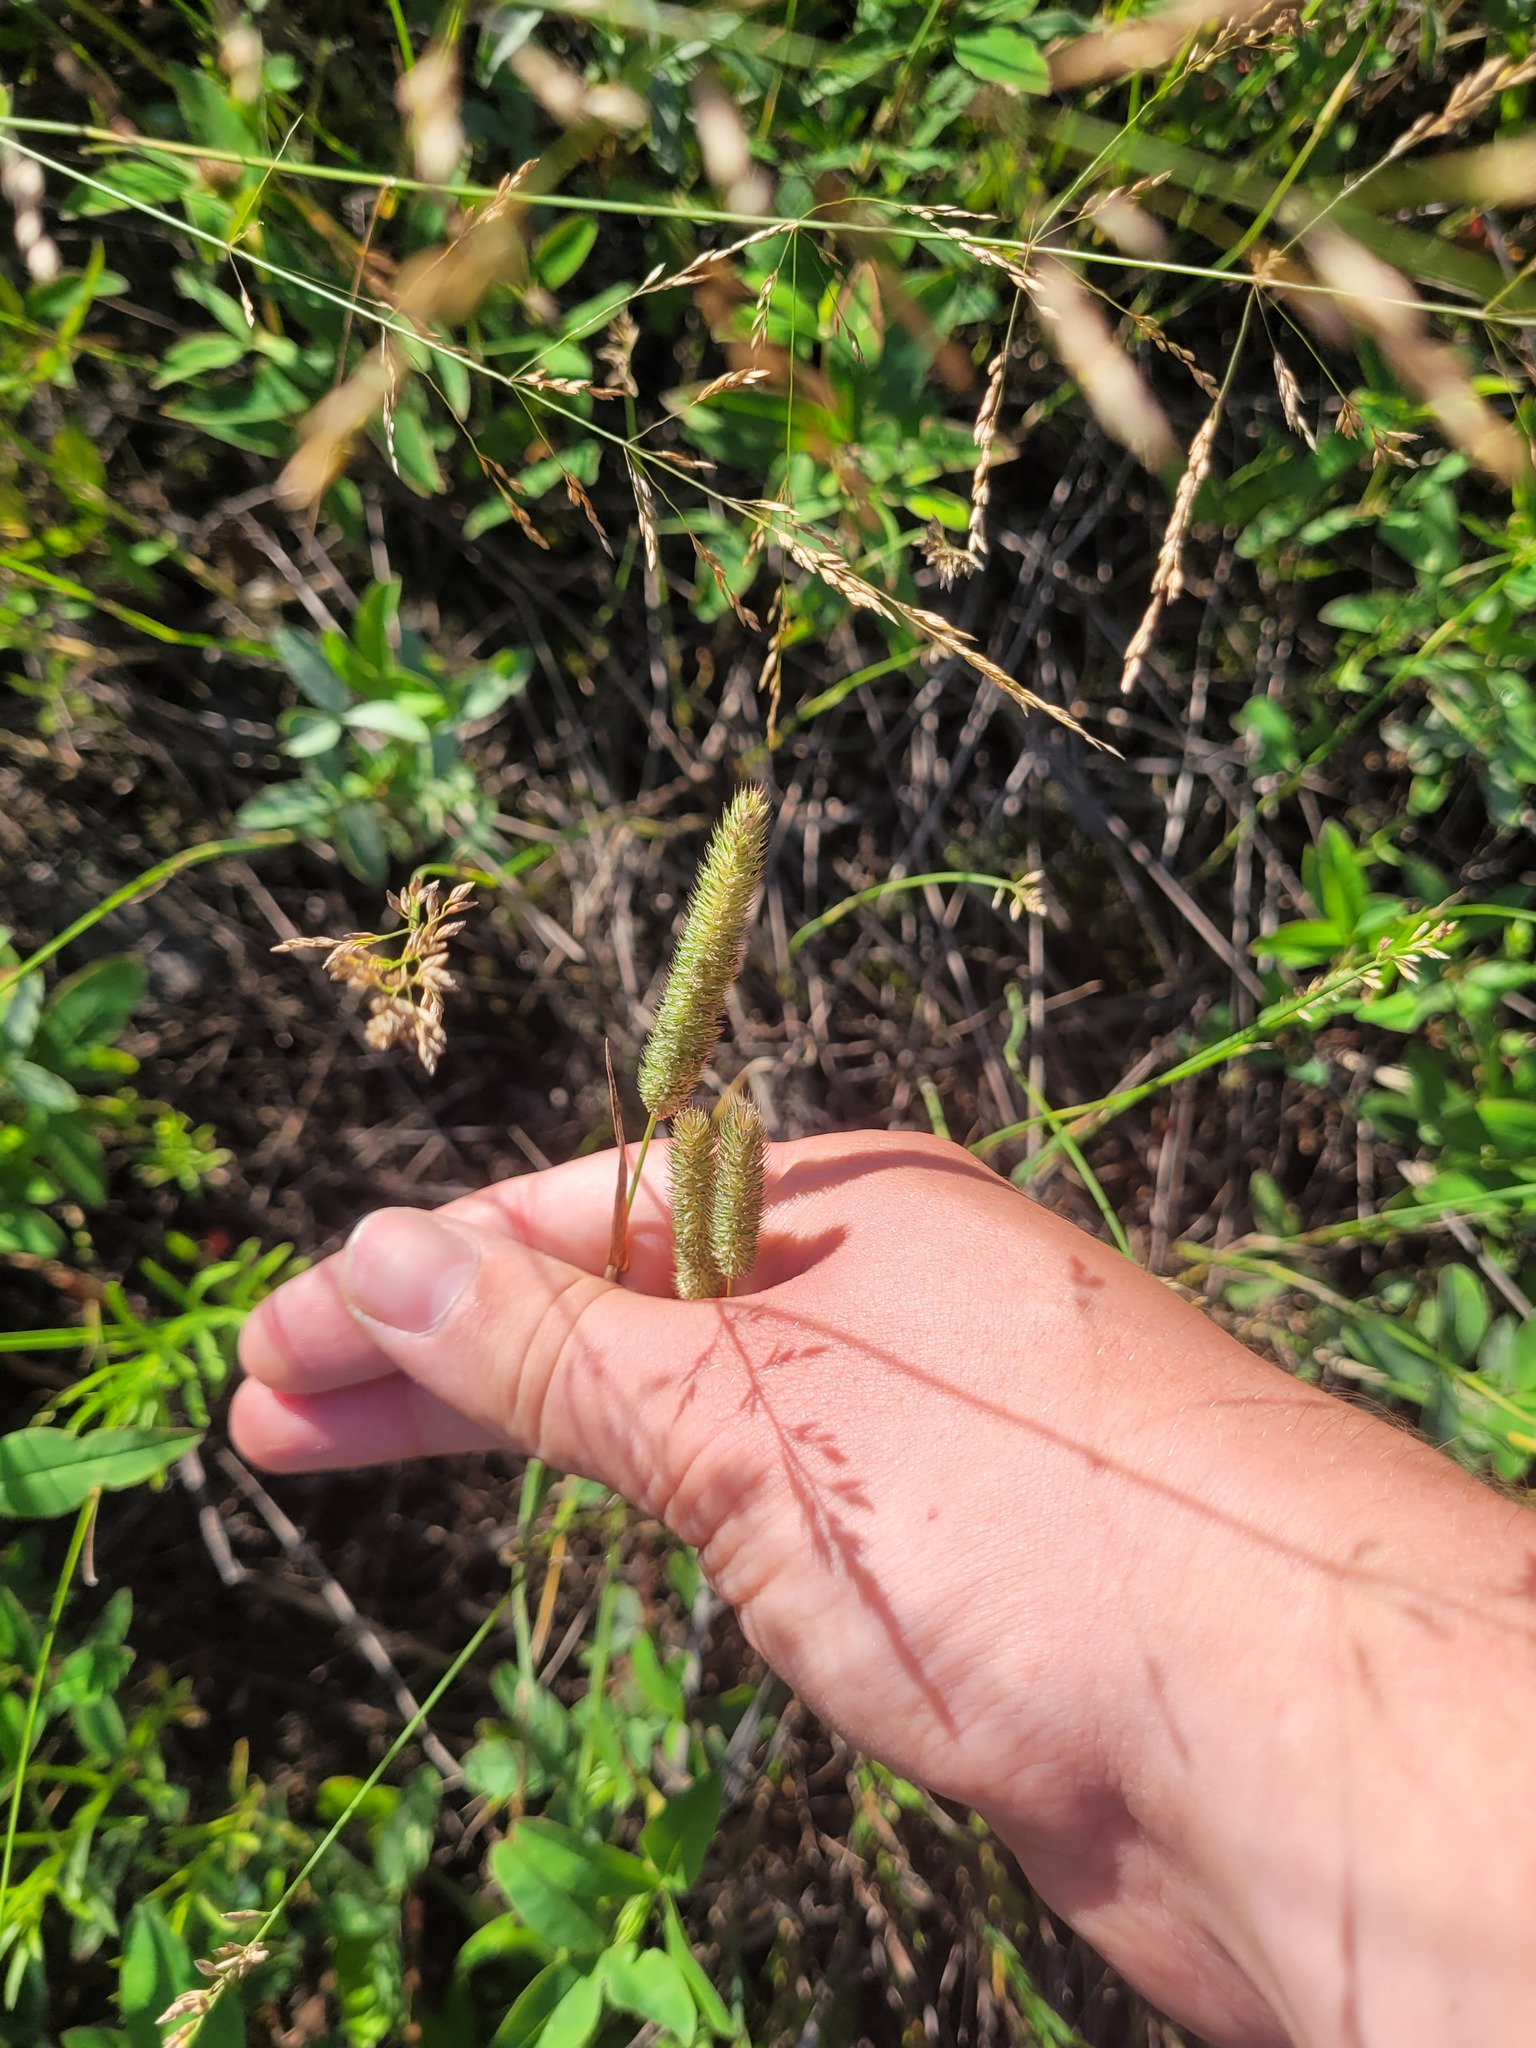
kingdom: Plantae
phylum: Tracheophyta
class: Liliopsida
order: Poales
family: Poaceae
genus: Phleum
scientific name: Phleum pratense
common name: Timothy grass
